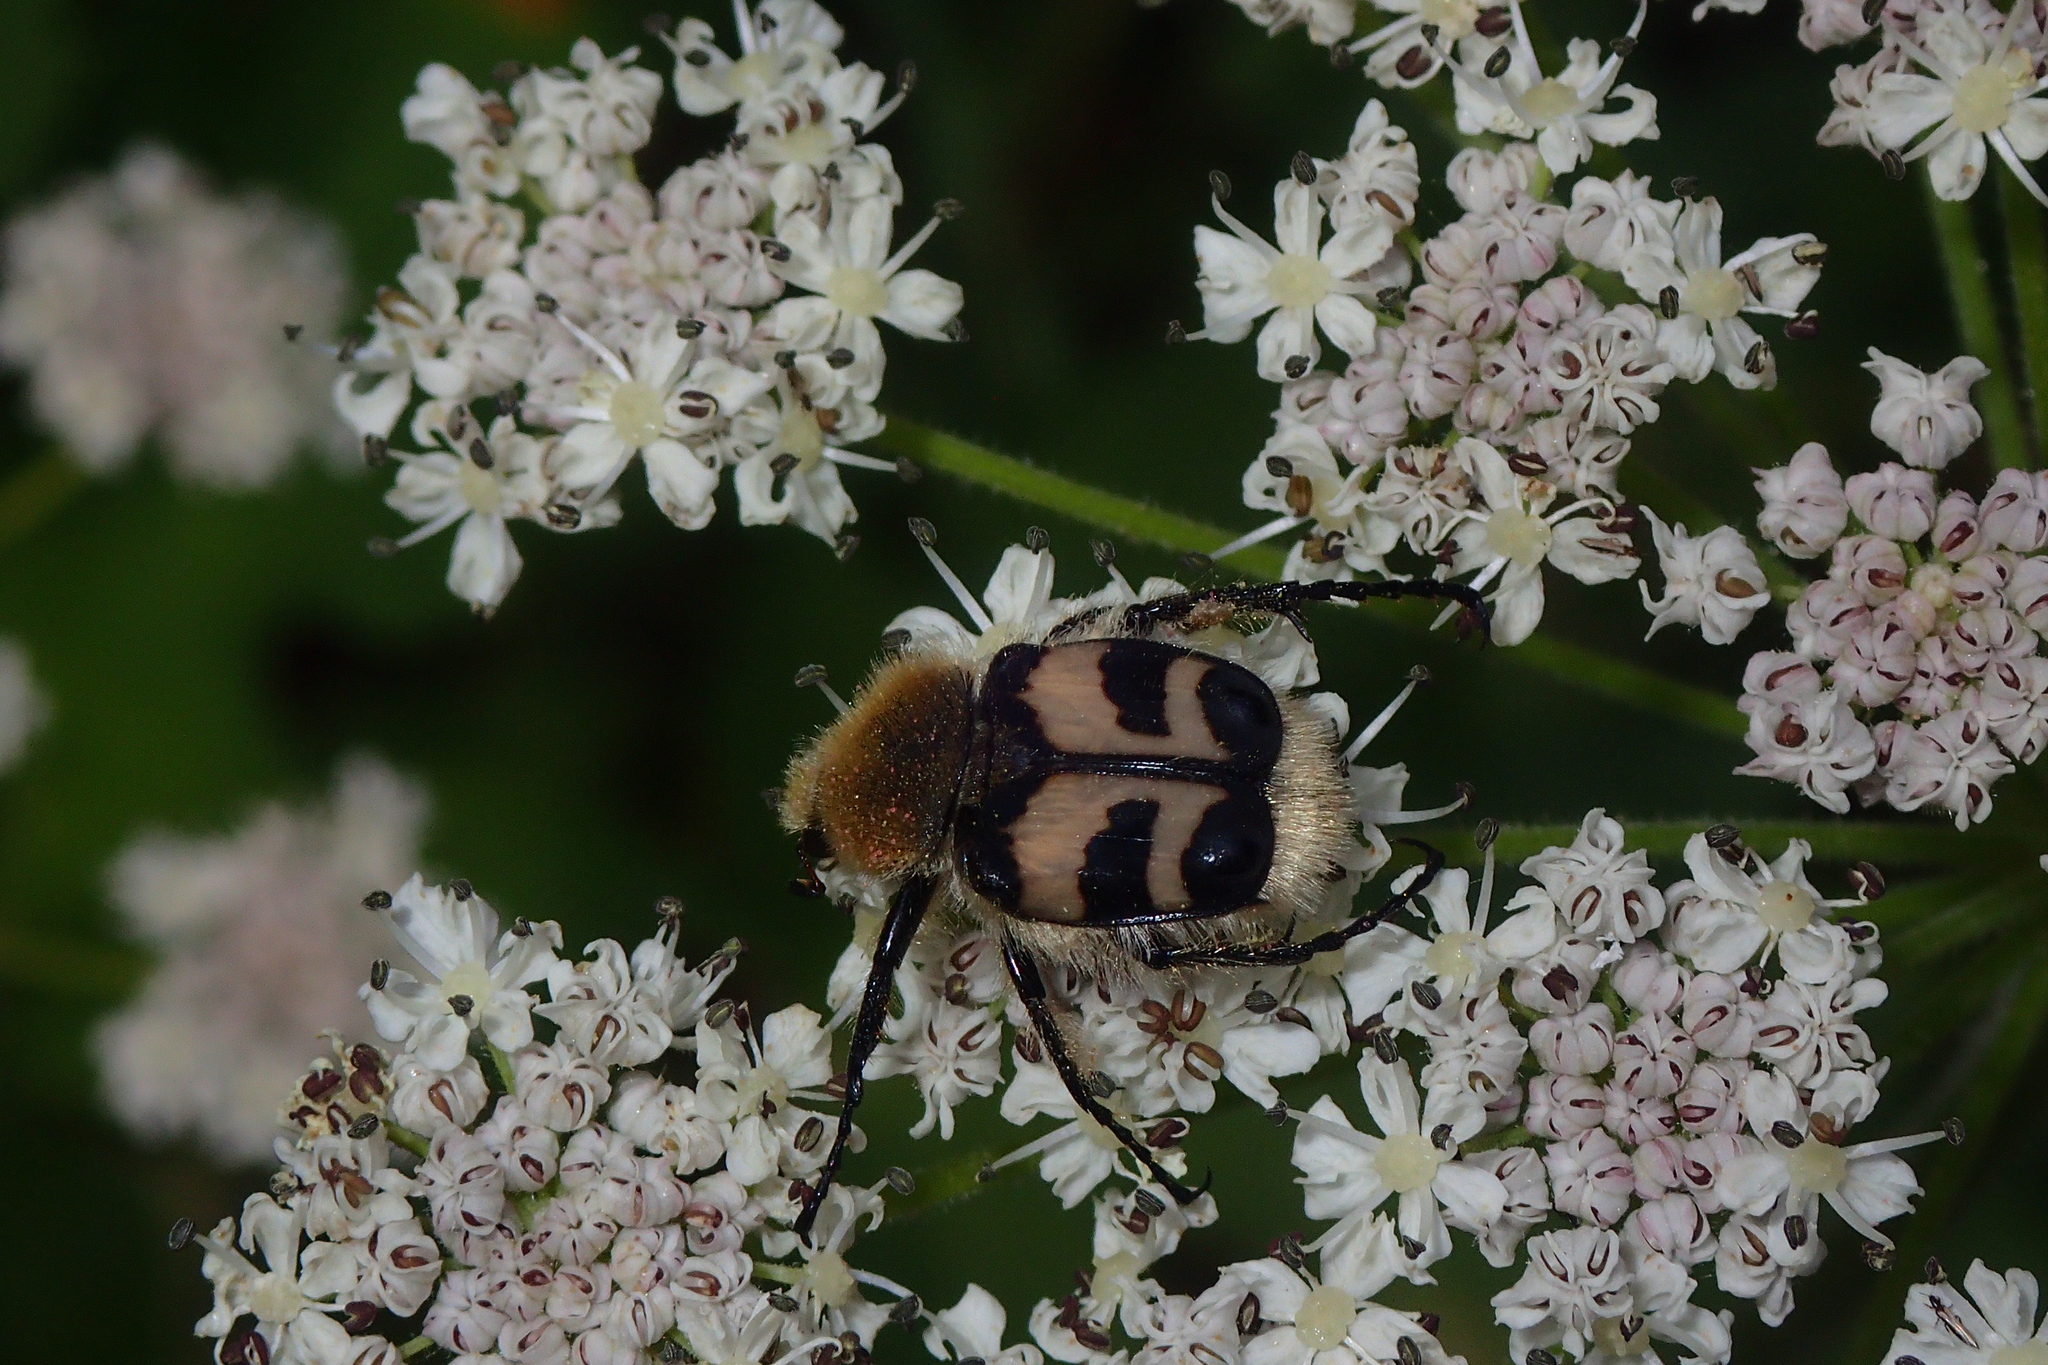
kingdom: Animalia
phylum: Arthropoda
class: Insecta
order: Coleoptera
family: Scarabaeidae
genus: Trichius
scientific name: Trichius fasciatus
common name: Bee beetle
